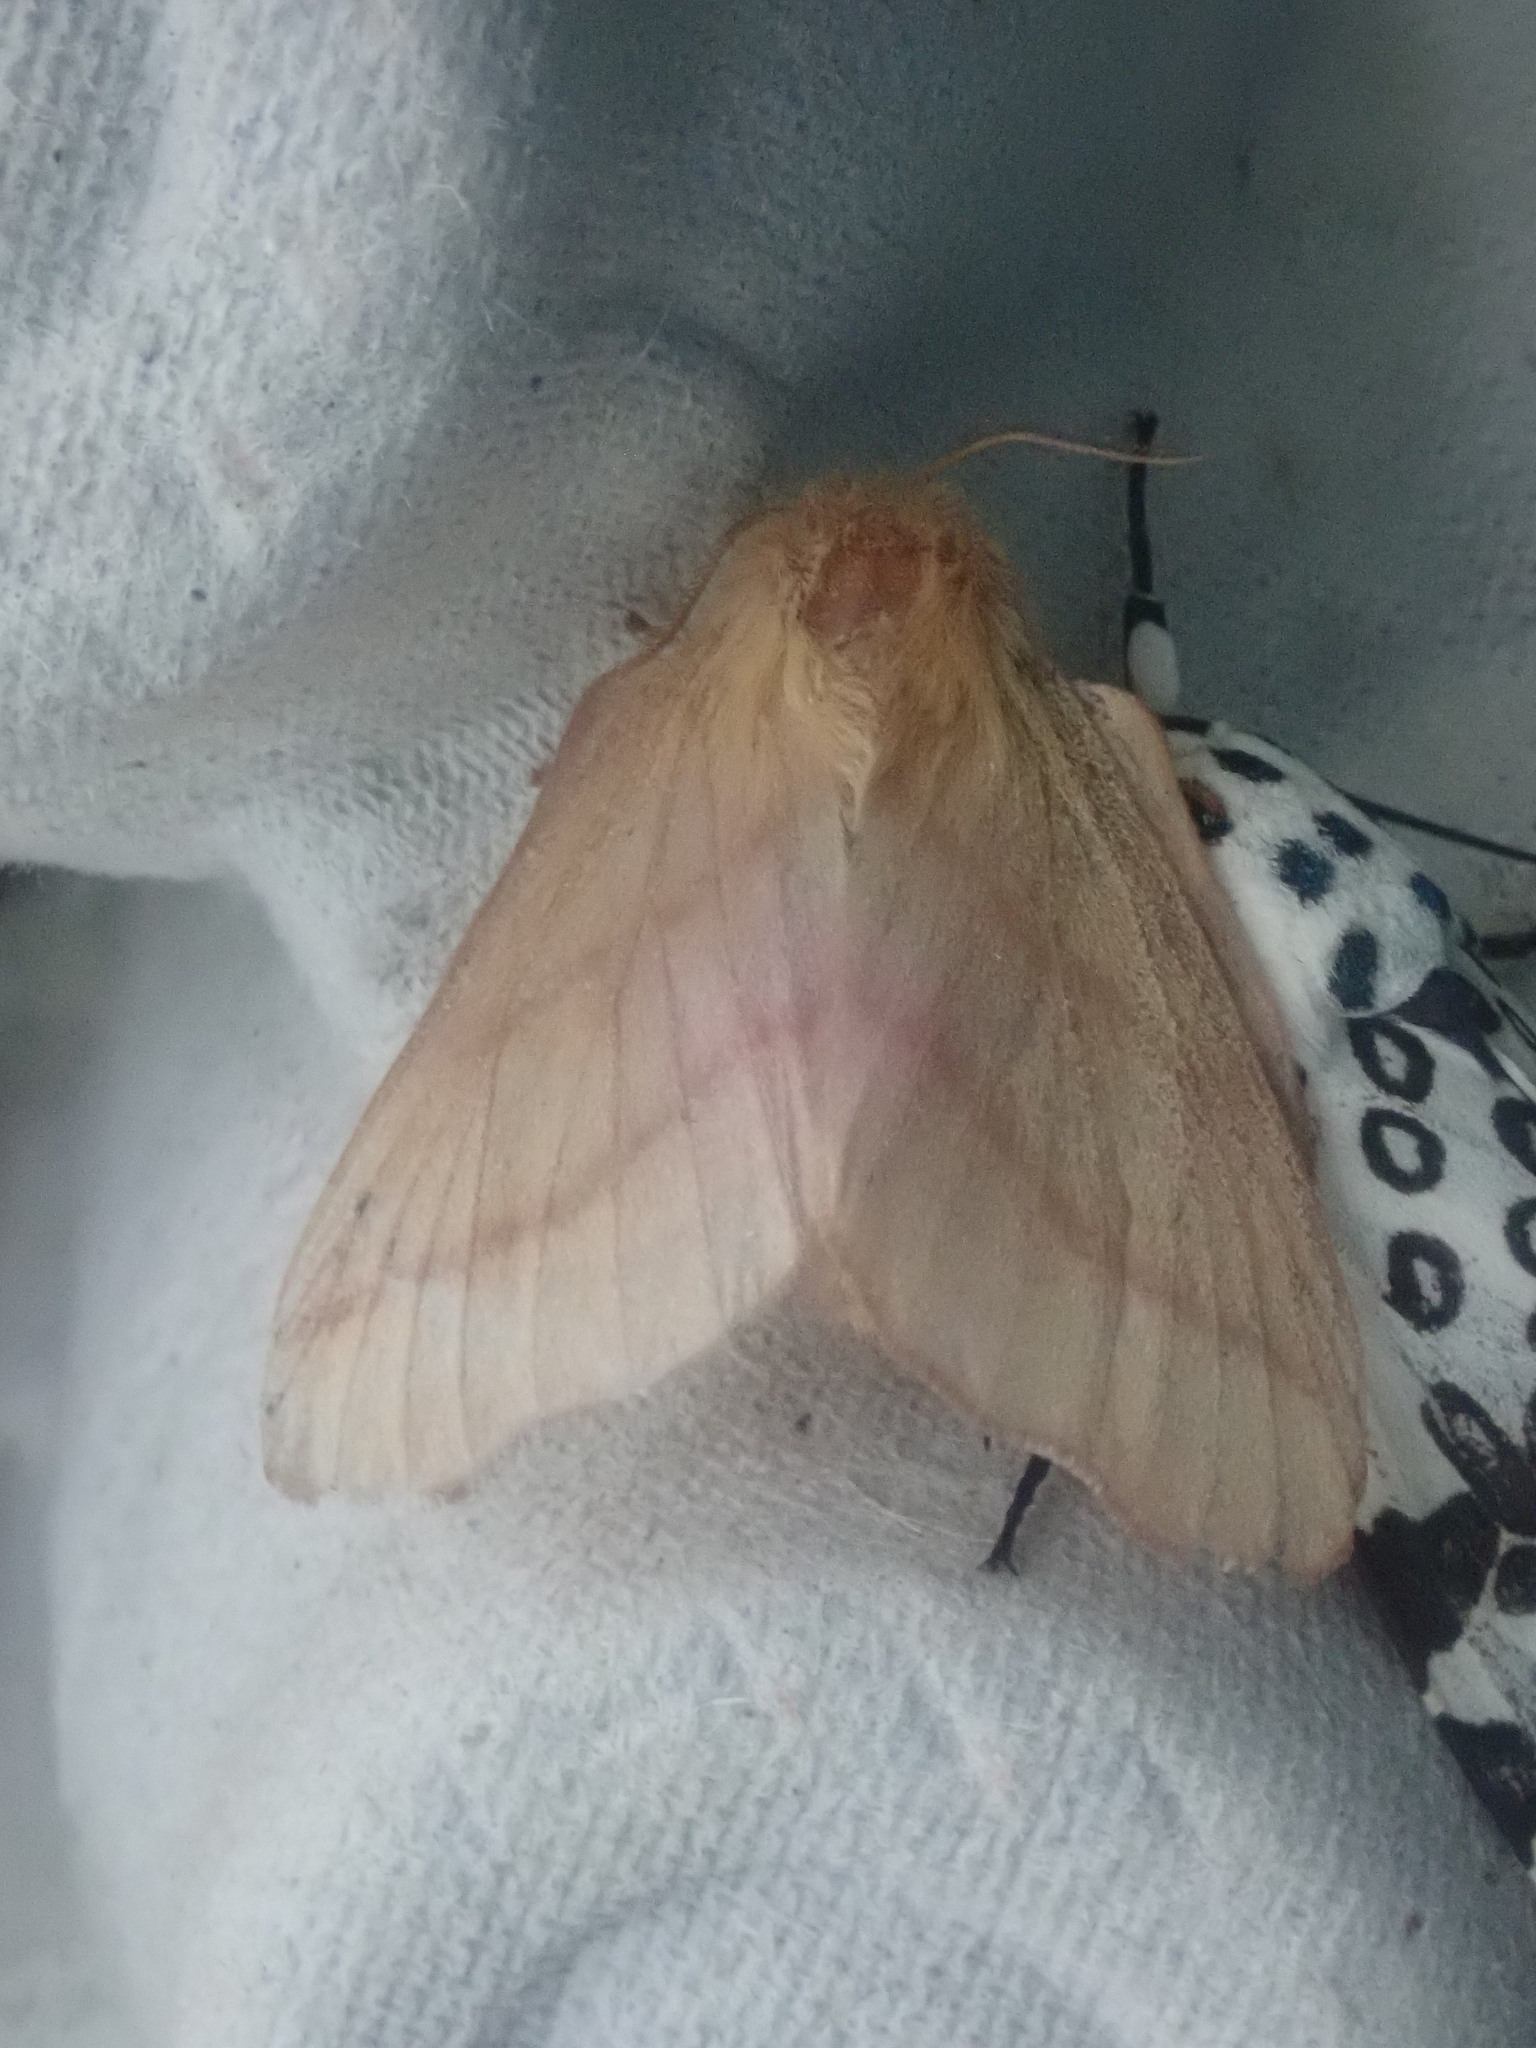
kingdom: Animalia
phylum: Arthropoda
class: Insecta
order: Lepidoptera
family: Lasiocampidae
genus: Malacosoma
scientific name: Malacosoma disstria
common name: Forest tent caterpillar
